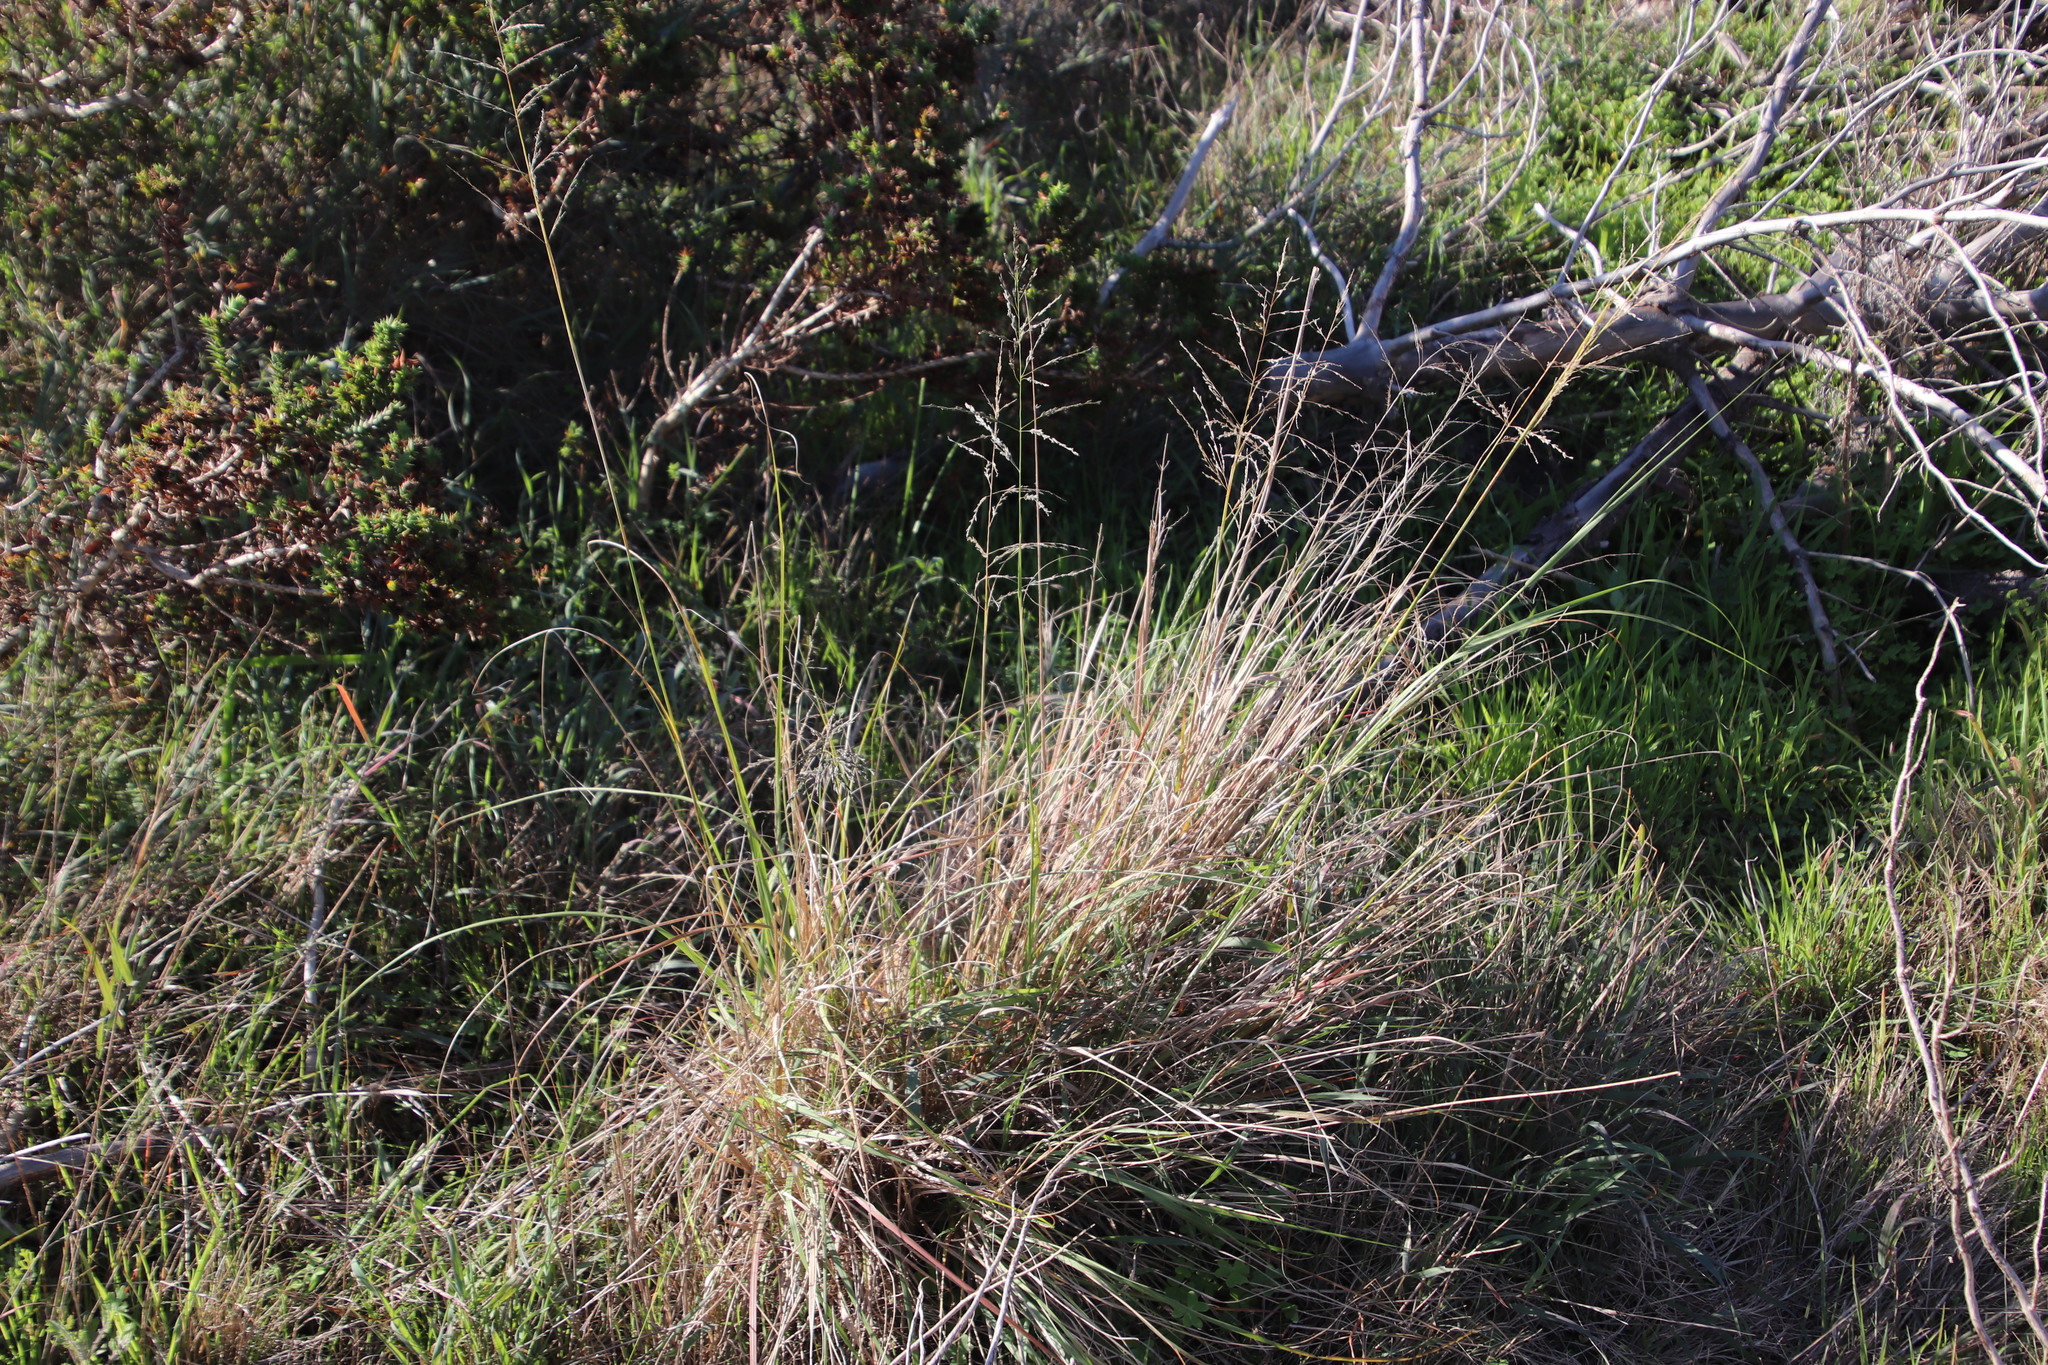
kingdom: Plantae
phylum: Tracheophyta
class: Liliopsida
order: Poales
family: Poaceae
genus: Eragrostis
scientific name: Eragrostis curvula
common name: African love-grass
